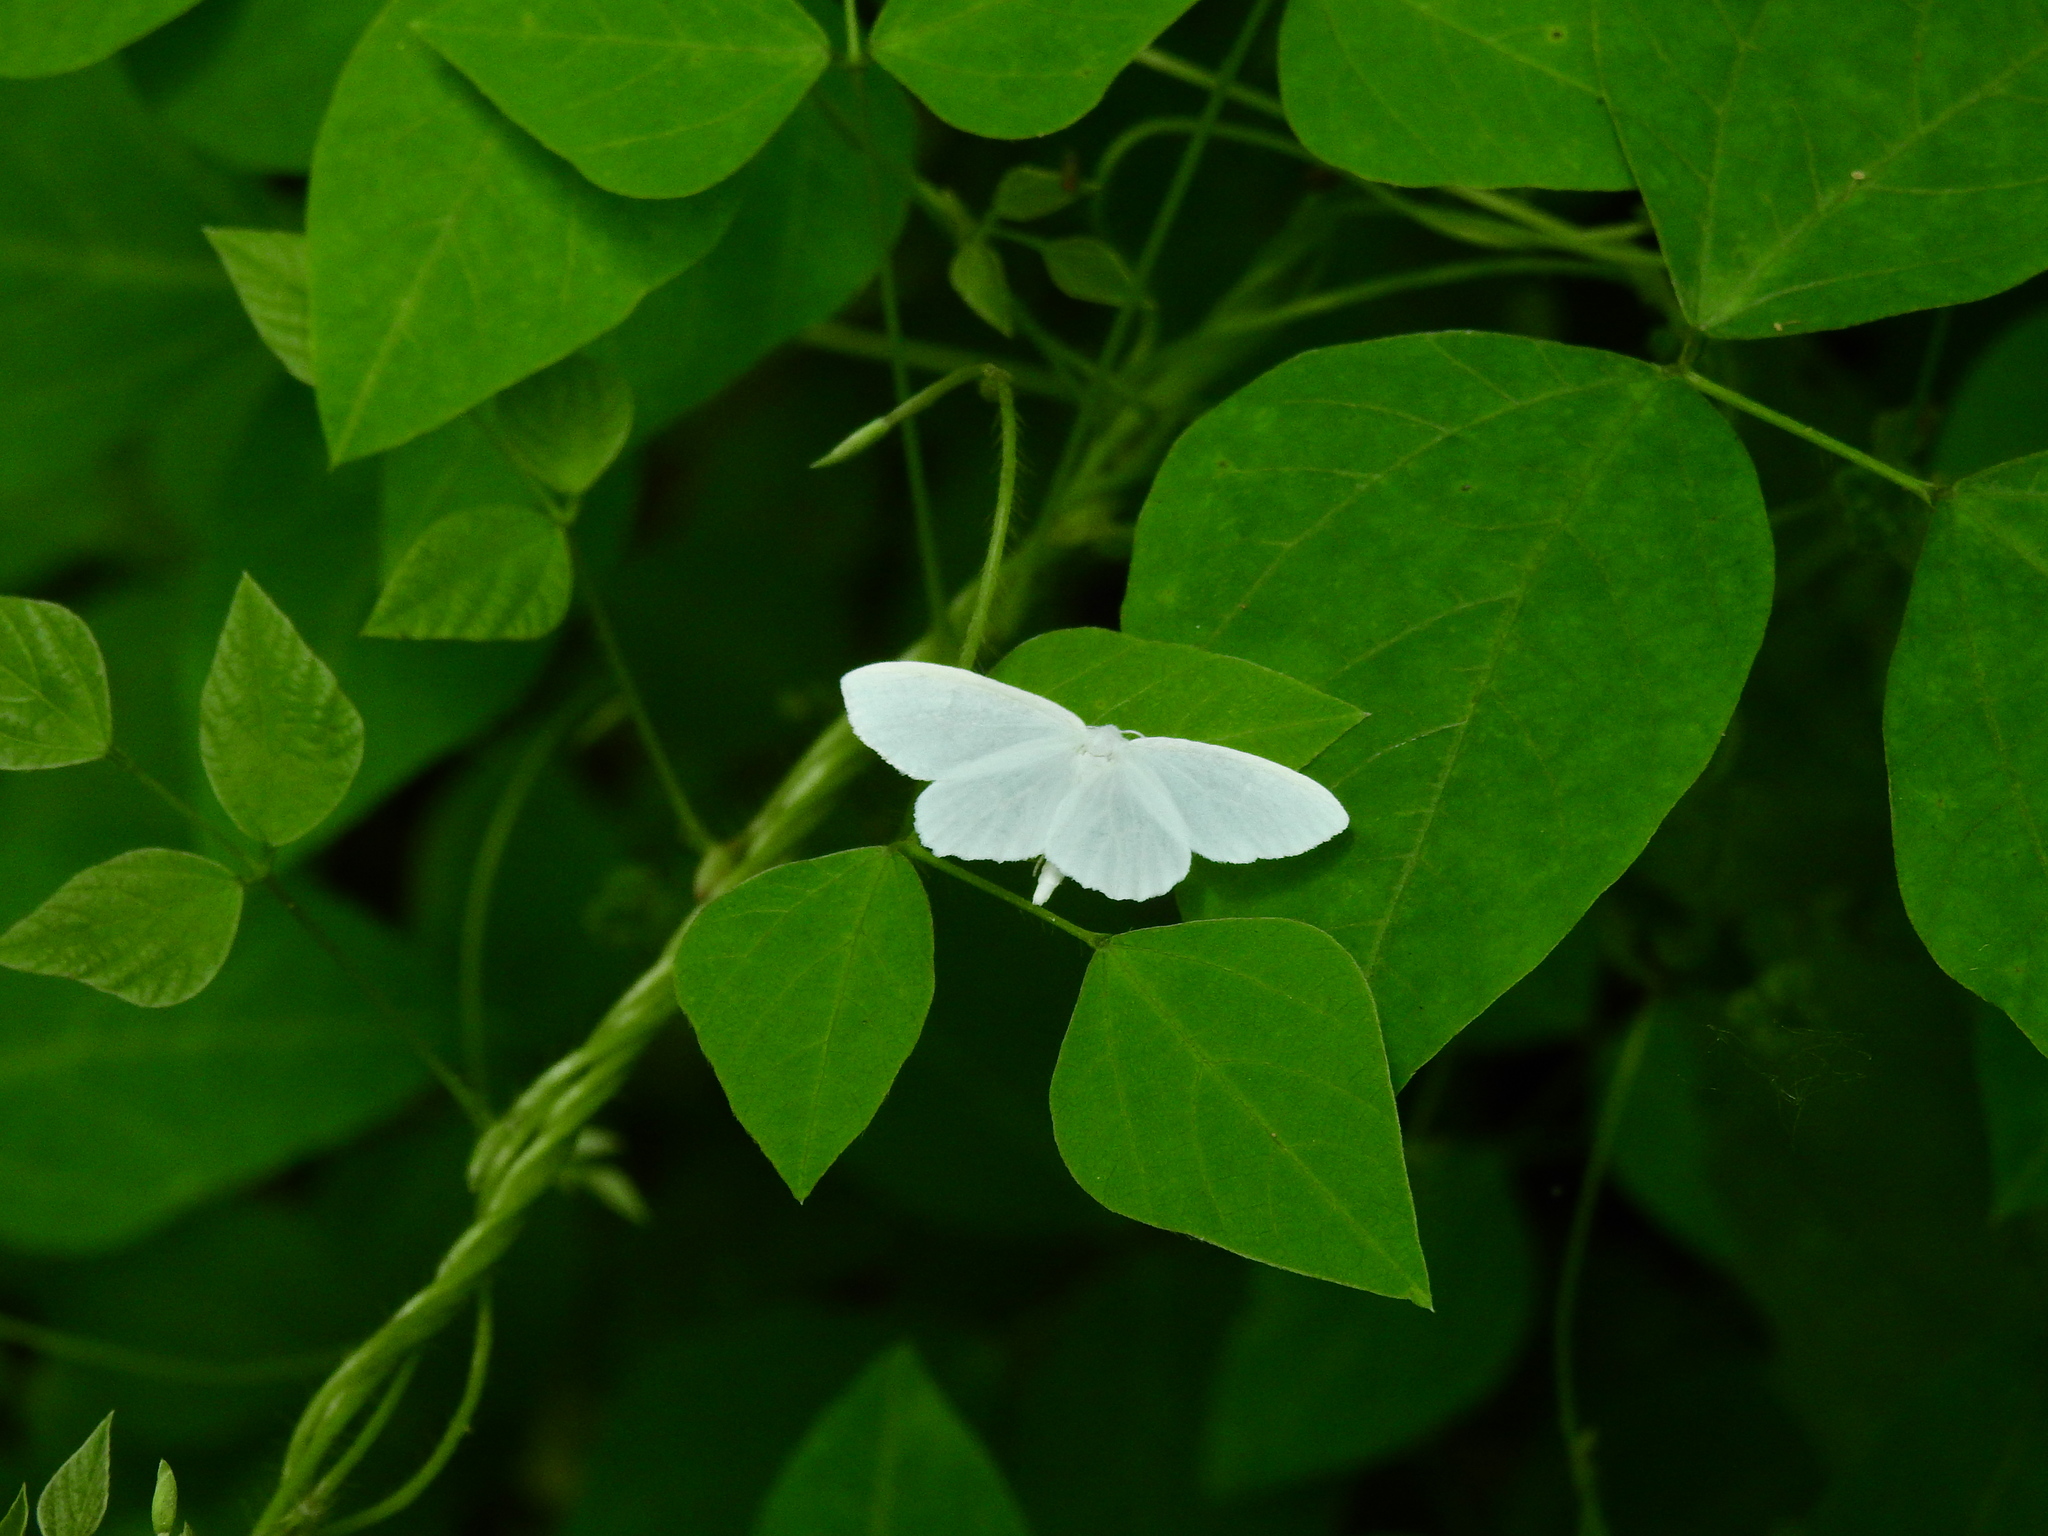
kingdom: Animalia
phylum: Arthropoda
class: Insecta
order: Lepidoptera
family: Geometridae
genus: Eugonobapta
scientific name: Eugonobapta nivosaria
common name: Snowy geometer
